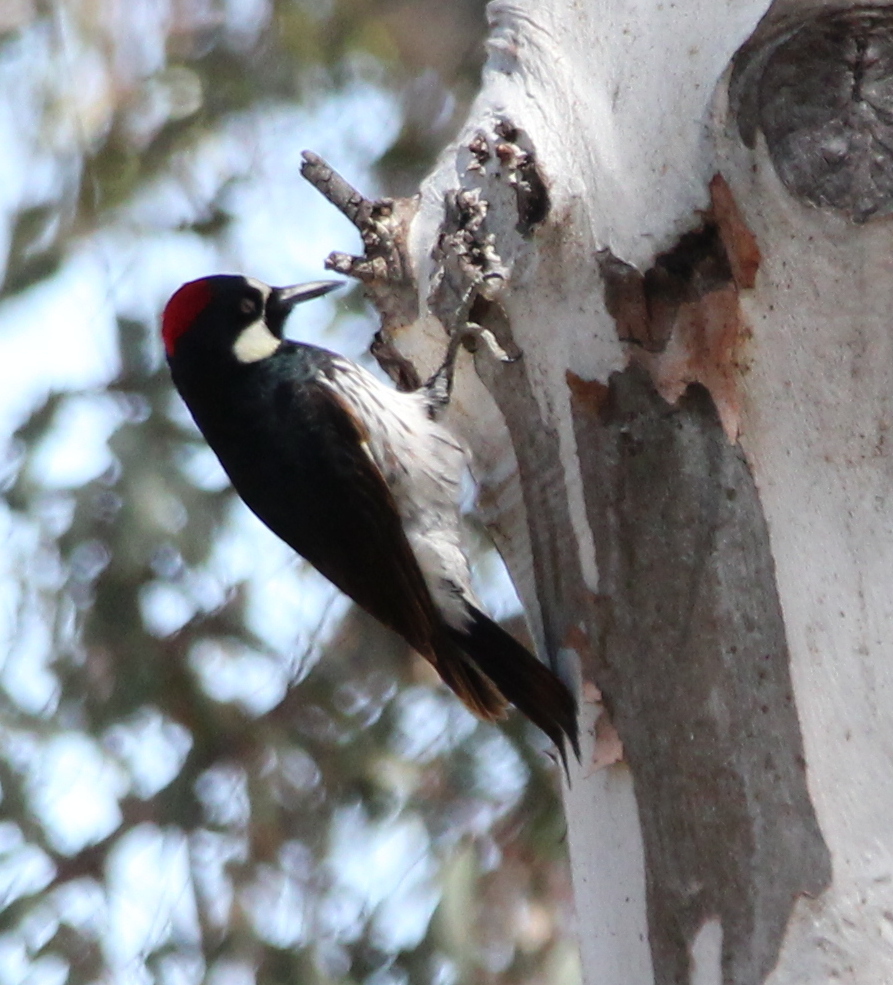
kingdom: Animalia
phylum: Chordata
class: Aves
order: Piciformes
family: Picidae
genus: Melanerpes
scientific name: Melanerpes formicivorus
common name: Acorn woodpecker
